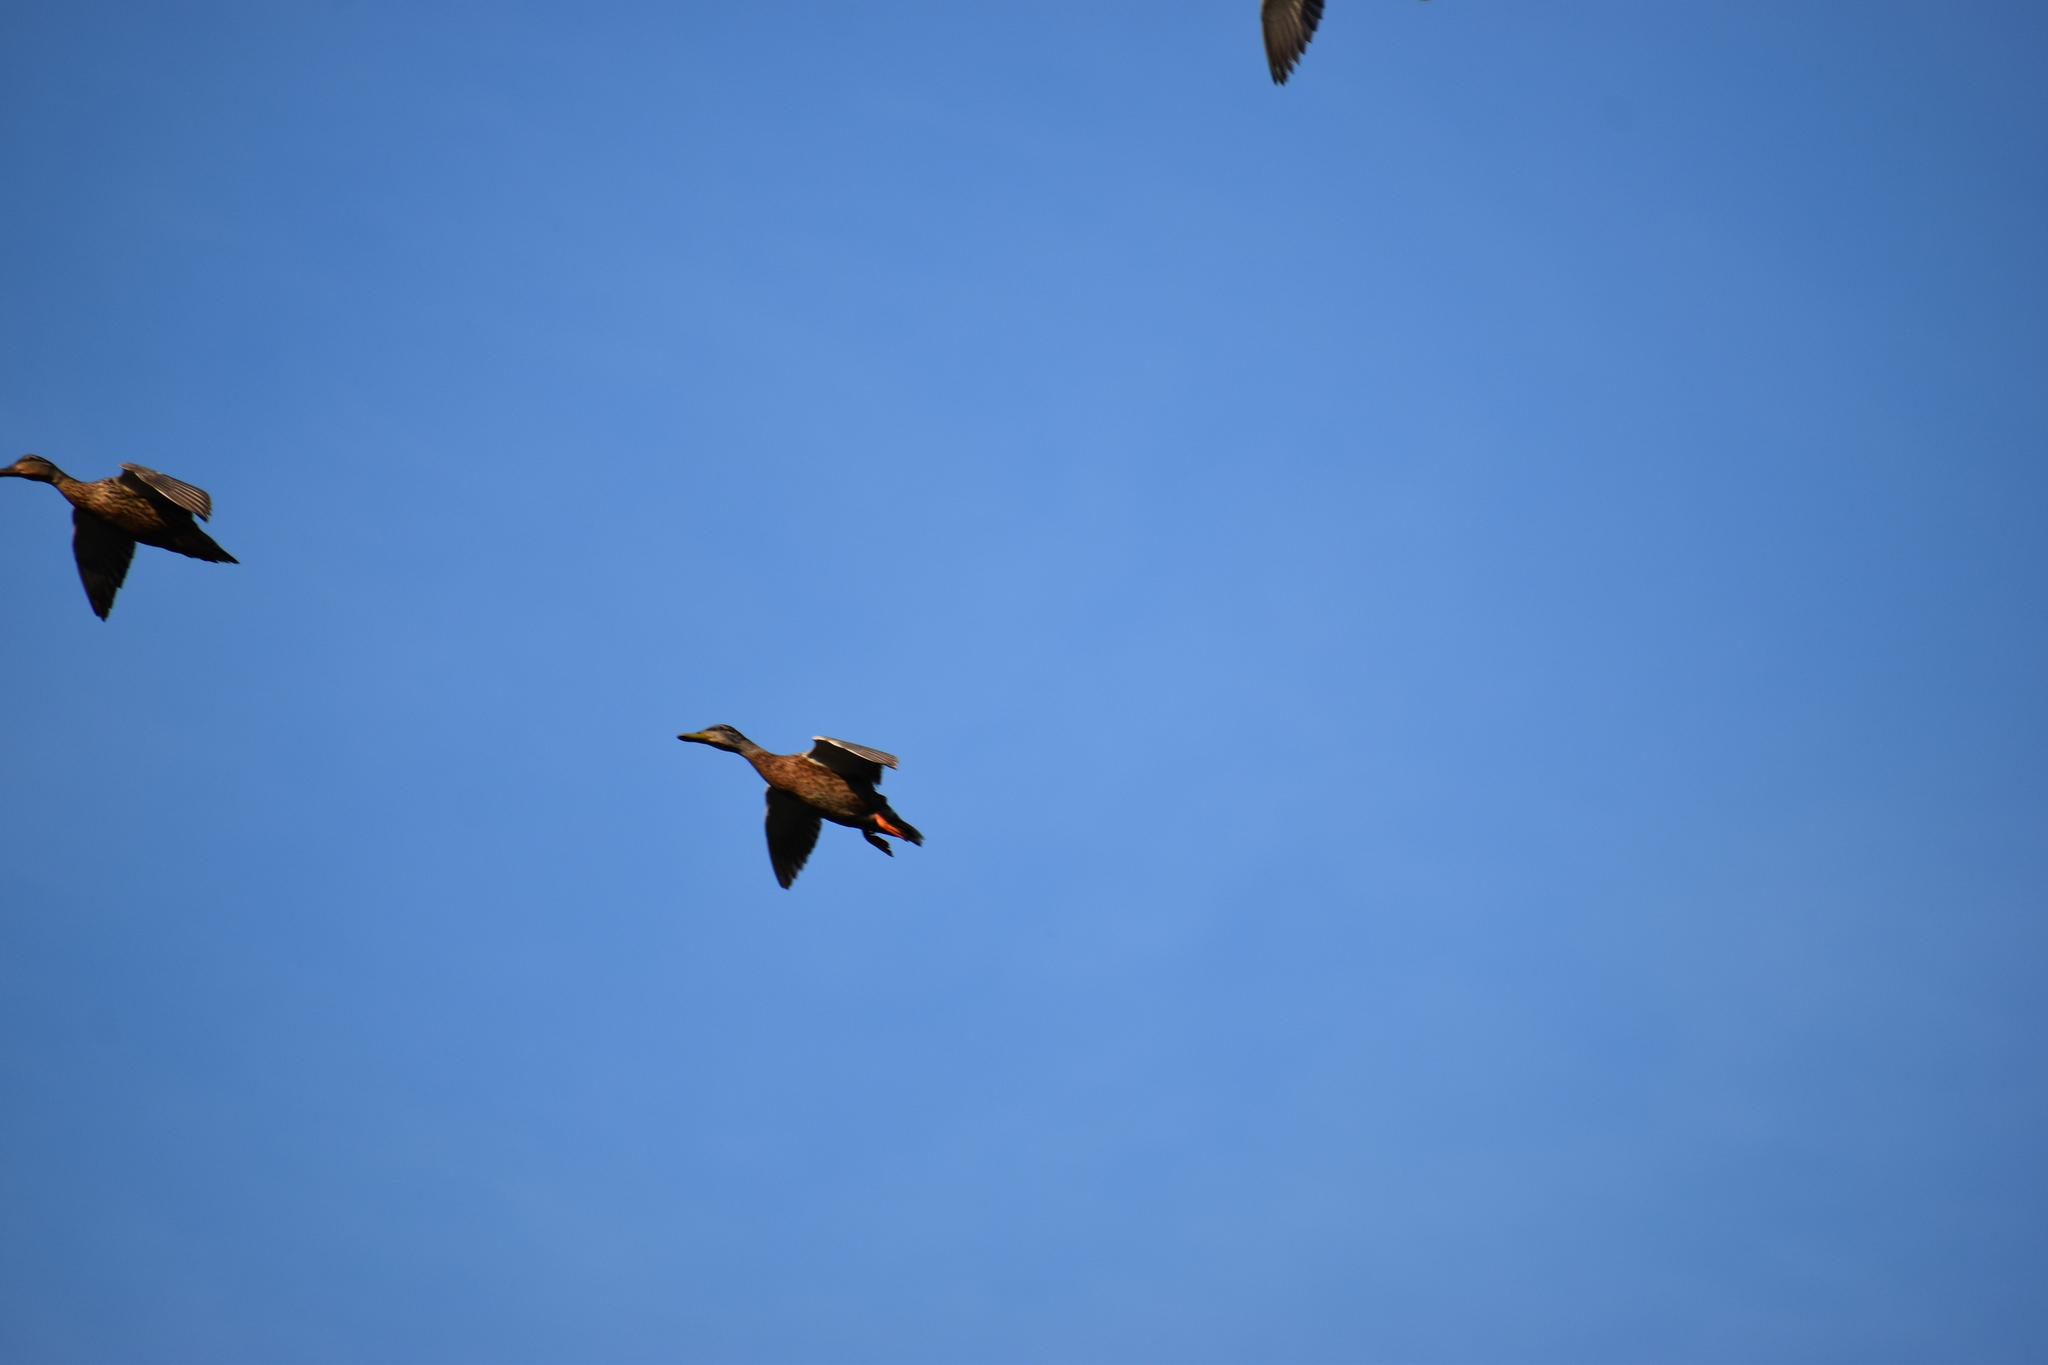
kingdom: Animalia
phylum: Chordata
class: Aves
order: Anseriformes
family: Anatidae
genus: Anas
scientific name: Anas platyrhynchos
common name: Mallard
